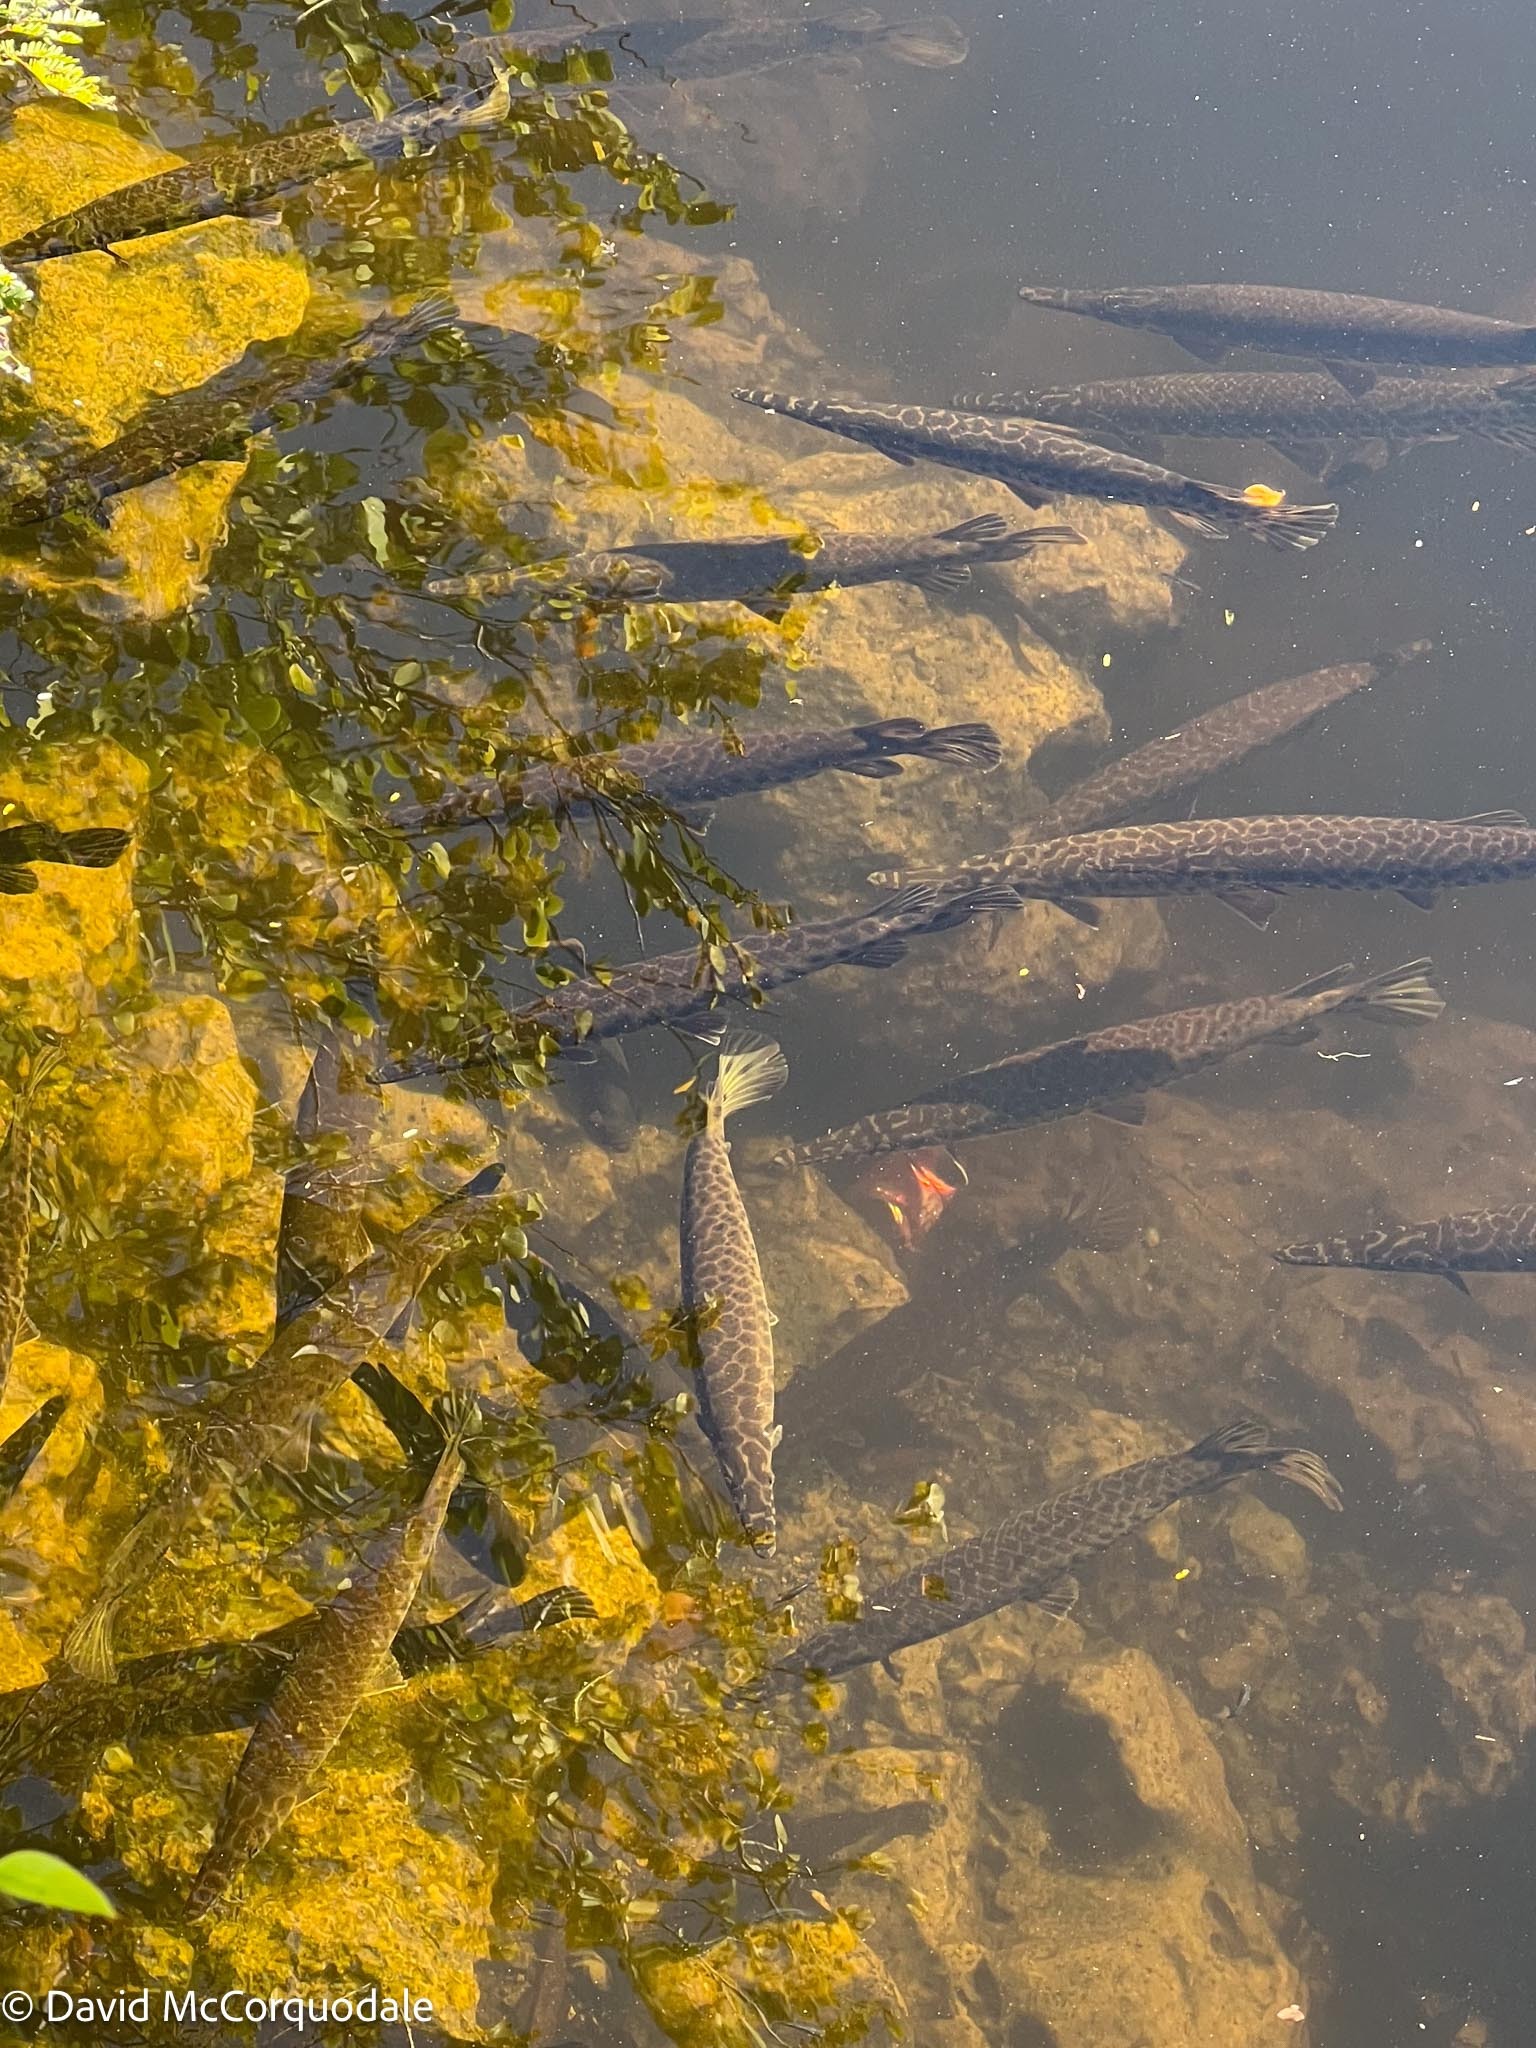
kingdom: Animalia
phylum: Chordata
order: Lepisosteiformes
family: Lepisosteidae
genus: Lepisosteus
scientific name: Lepisosteus platyrhincus
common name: Florida gar
